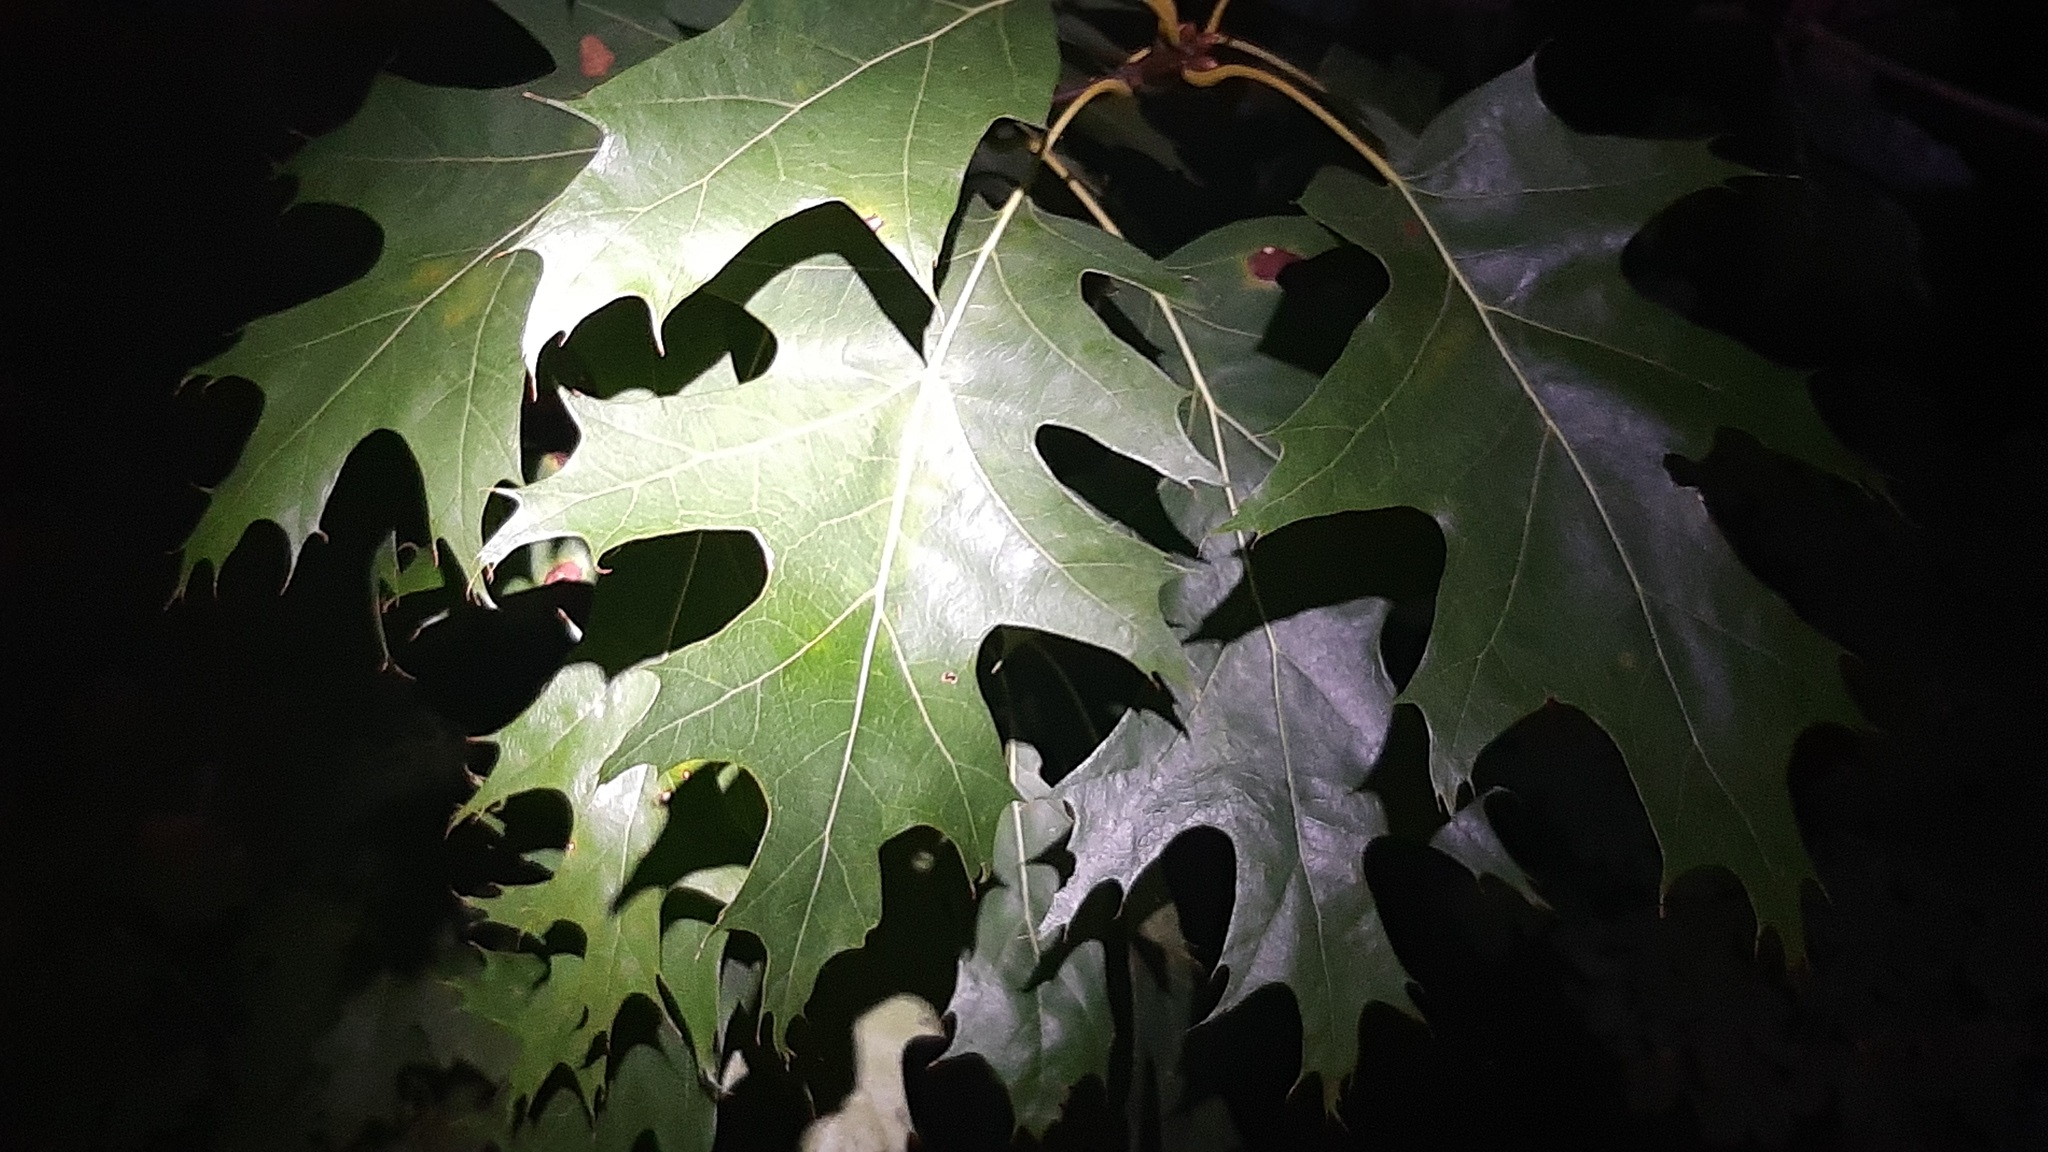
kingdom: Plantae
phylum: Tracheophyta
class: Magnoliopsida
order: Fagales
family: Fagaceae
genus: Quercus
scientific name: Quercus rubra
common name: Red oak
